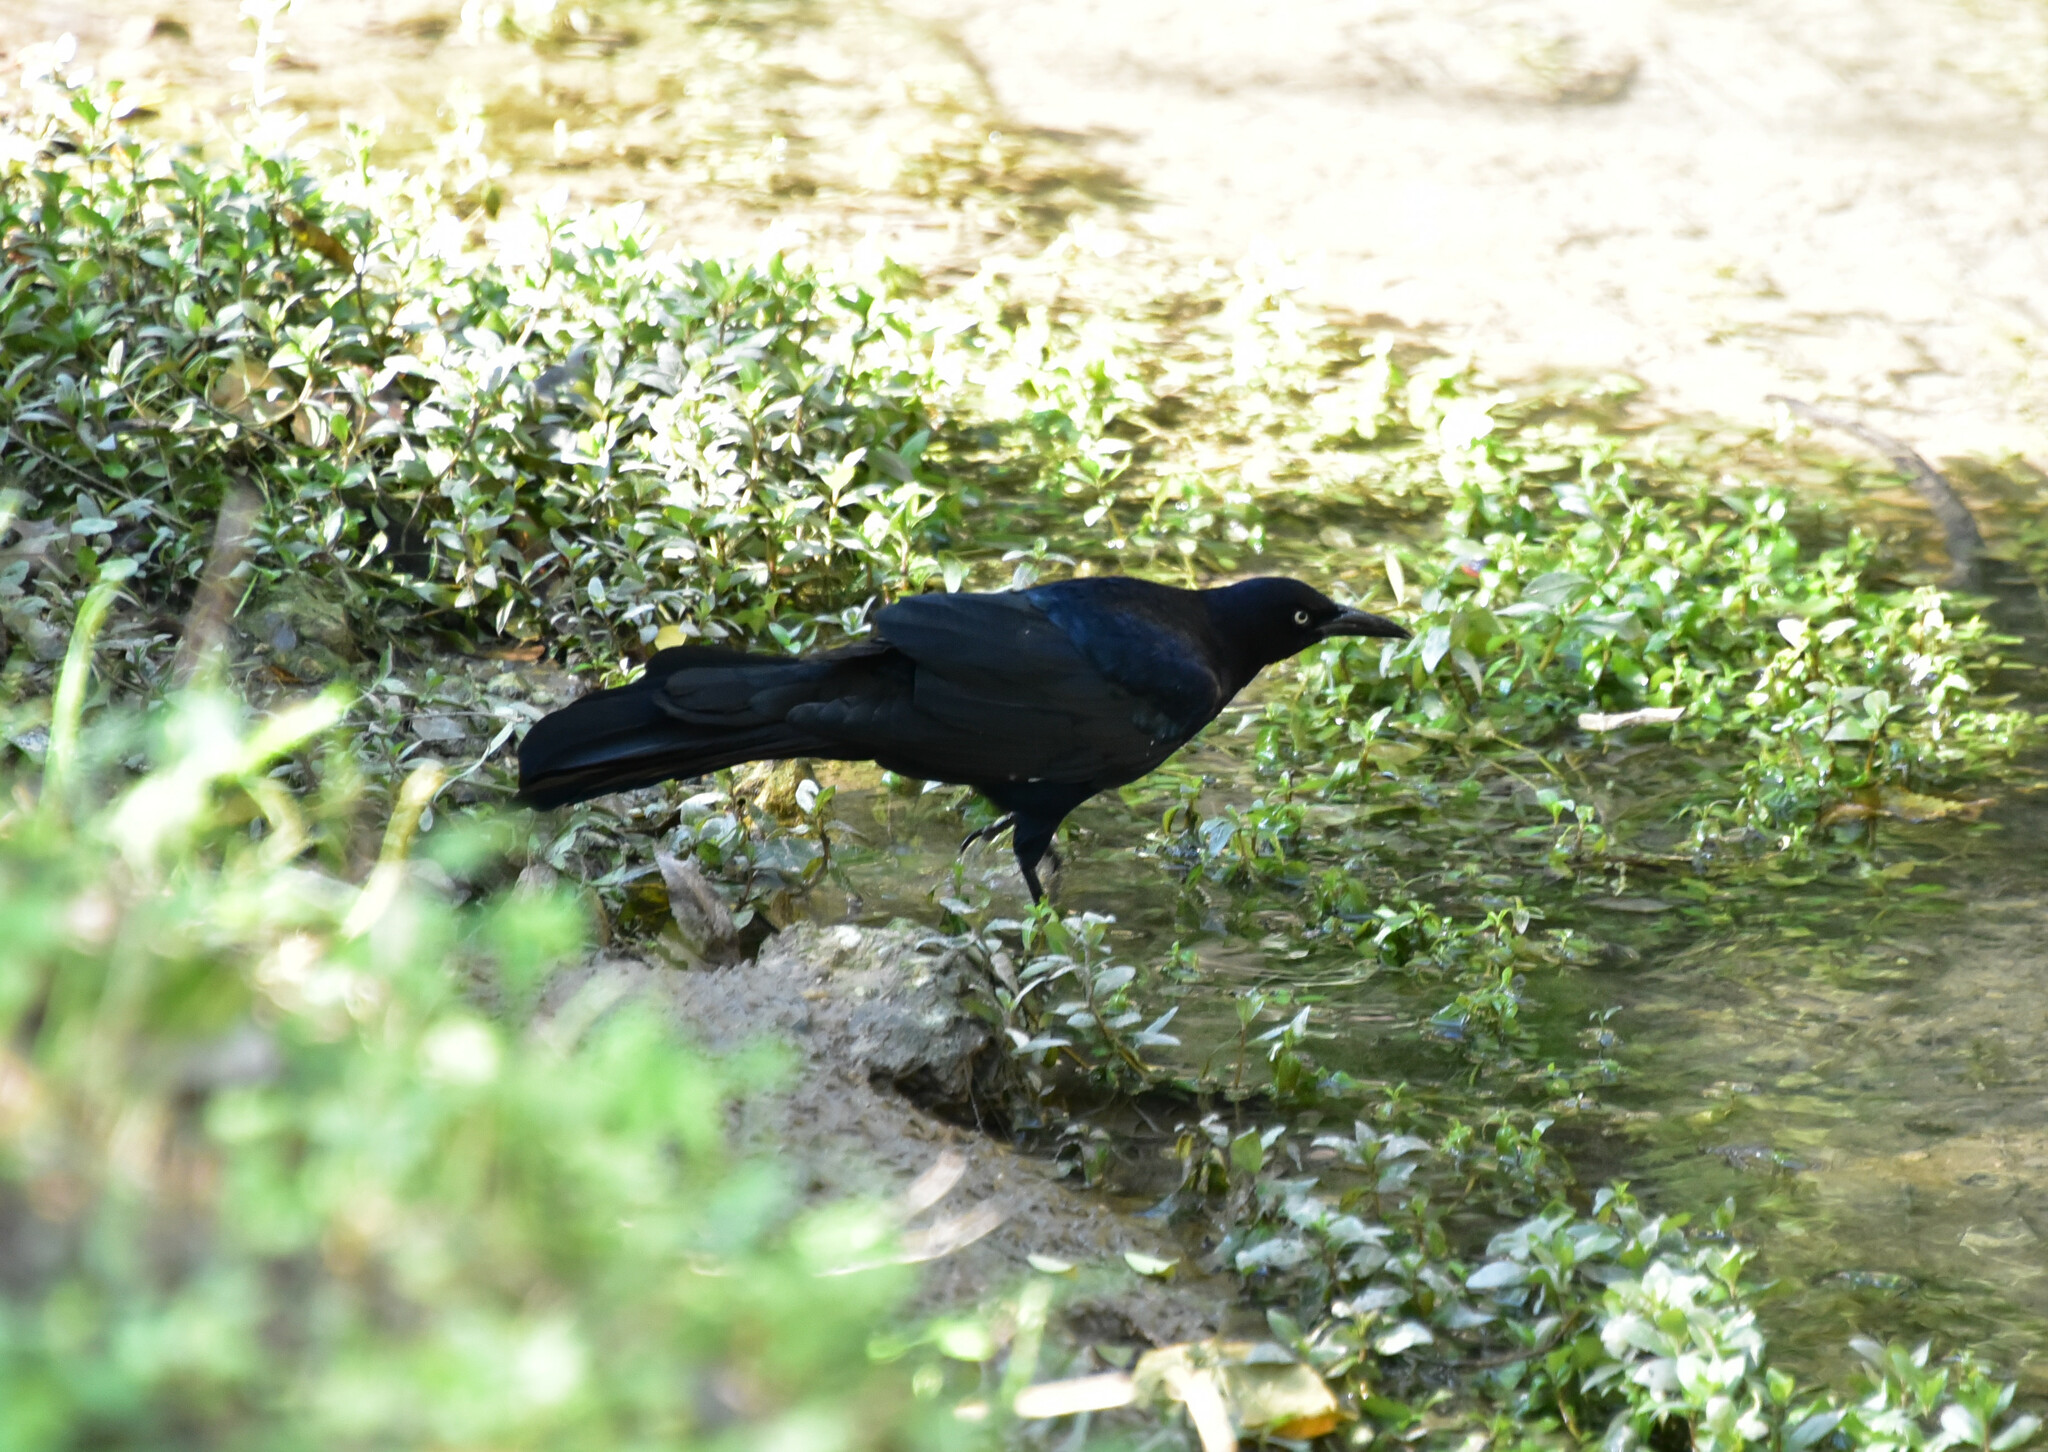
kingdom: Animalia
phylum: Chordata
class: Aves
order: Passeriformes
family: Icteridae
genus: Quiscalus
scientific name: Quiscalus mexicanus
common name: Great-tailed grackle
